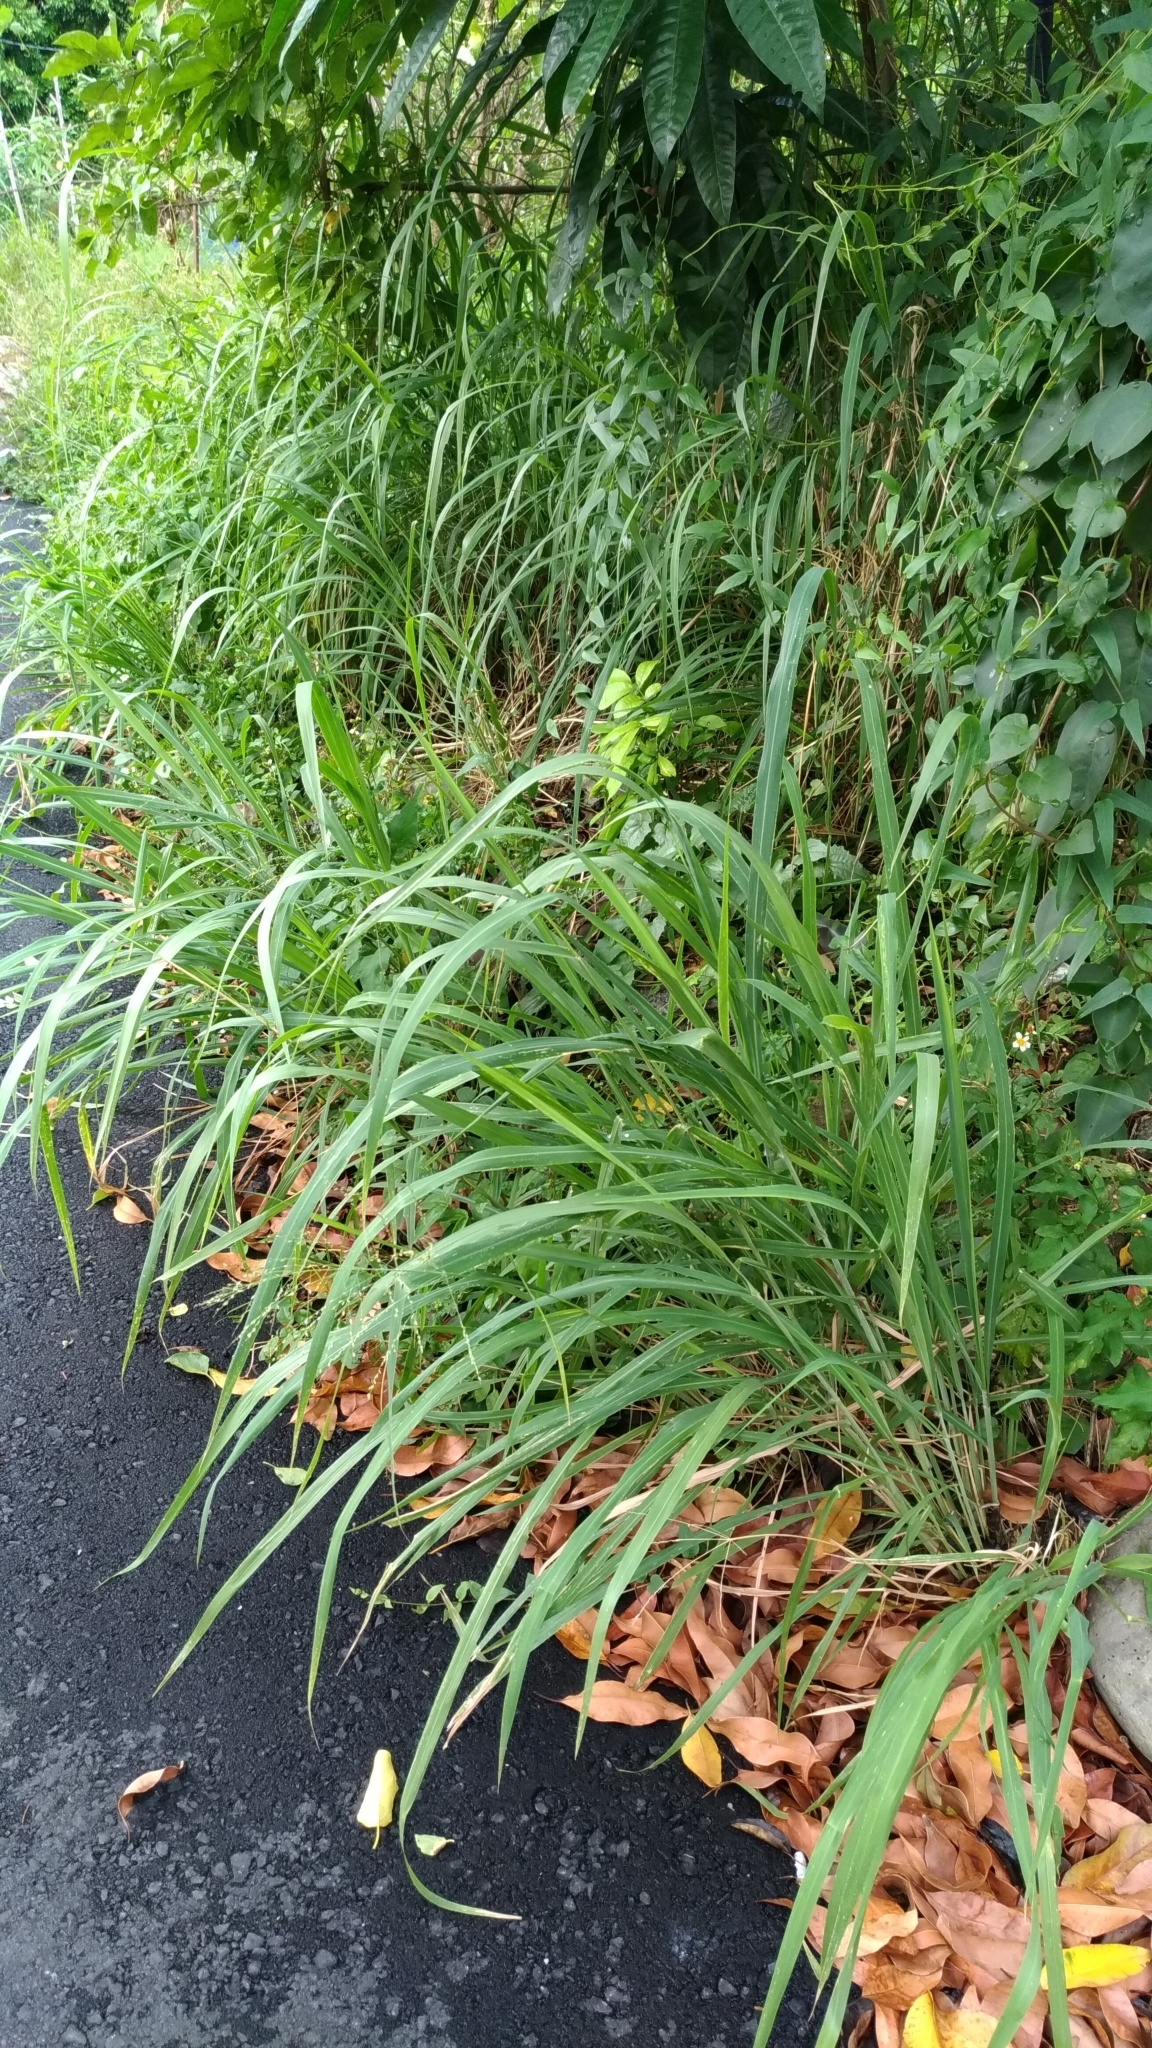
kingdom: Plantae
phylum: Tracheophyta
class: Liliopsida
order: Poales
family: Poaceae
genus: Megathyrsus
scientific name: Megathyrsus maximus
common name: Guineagrass
